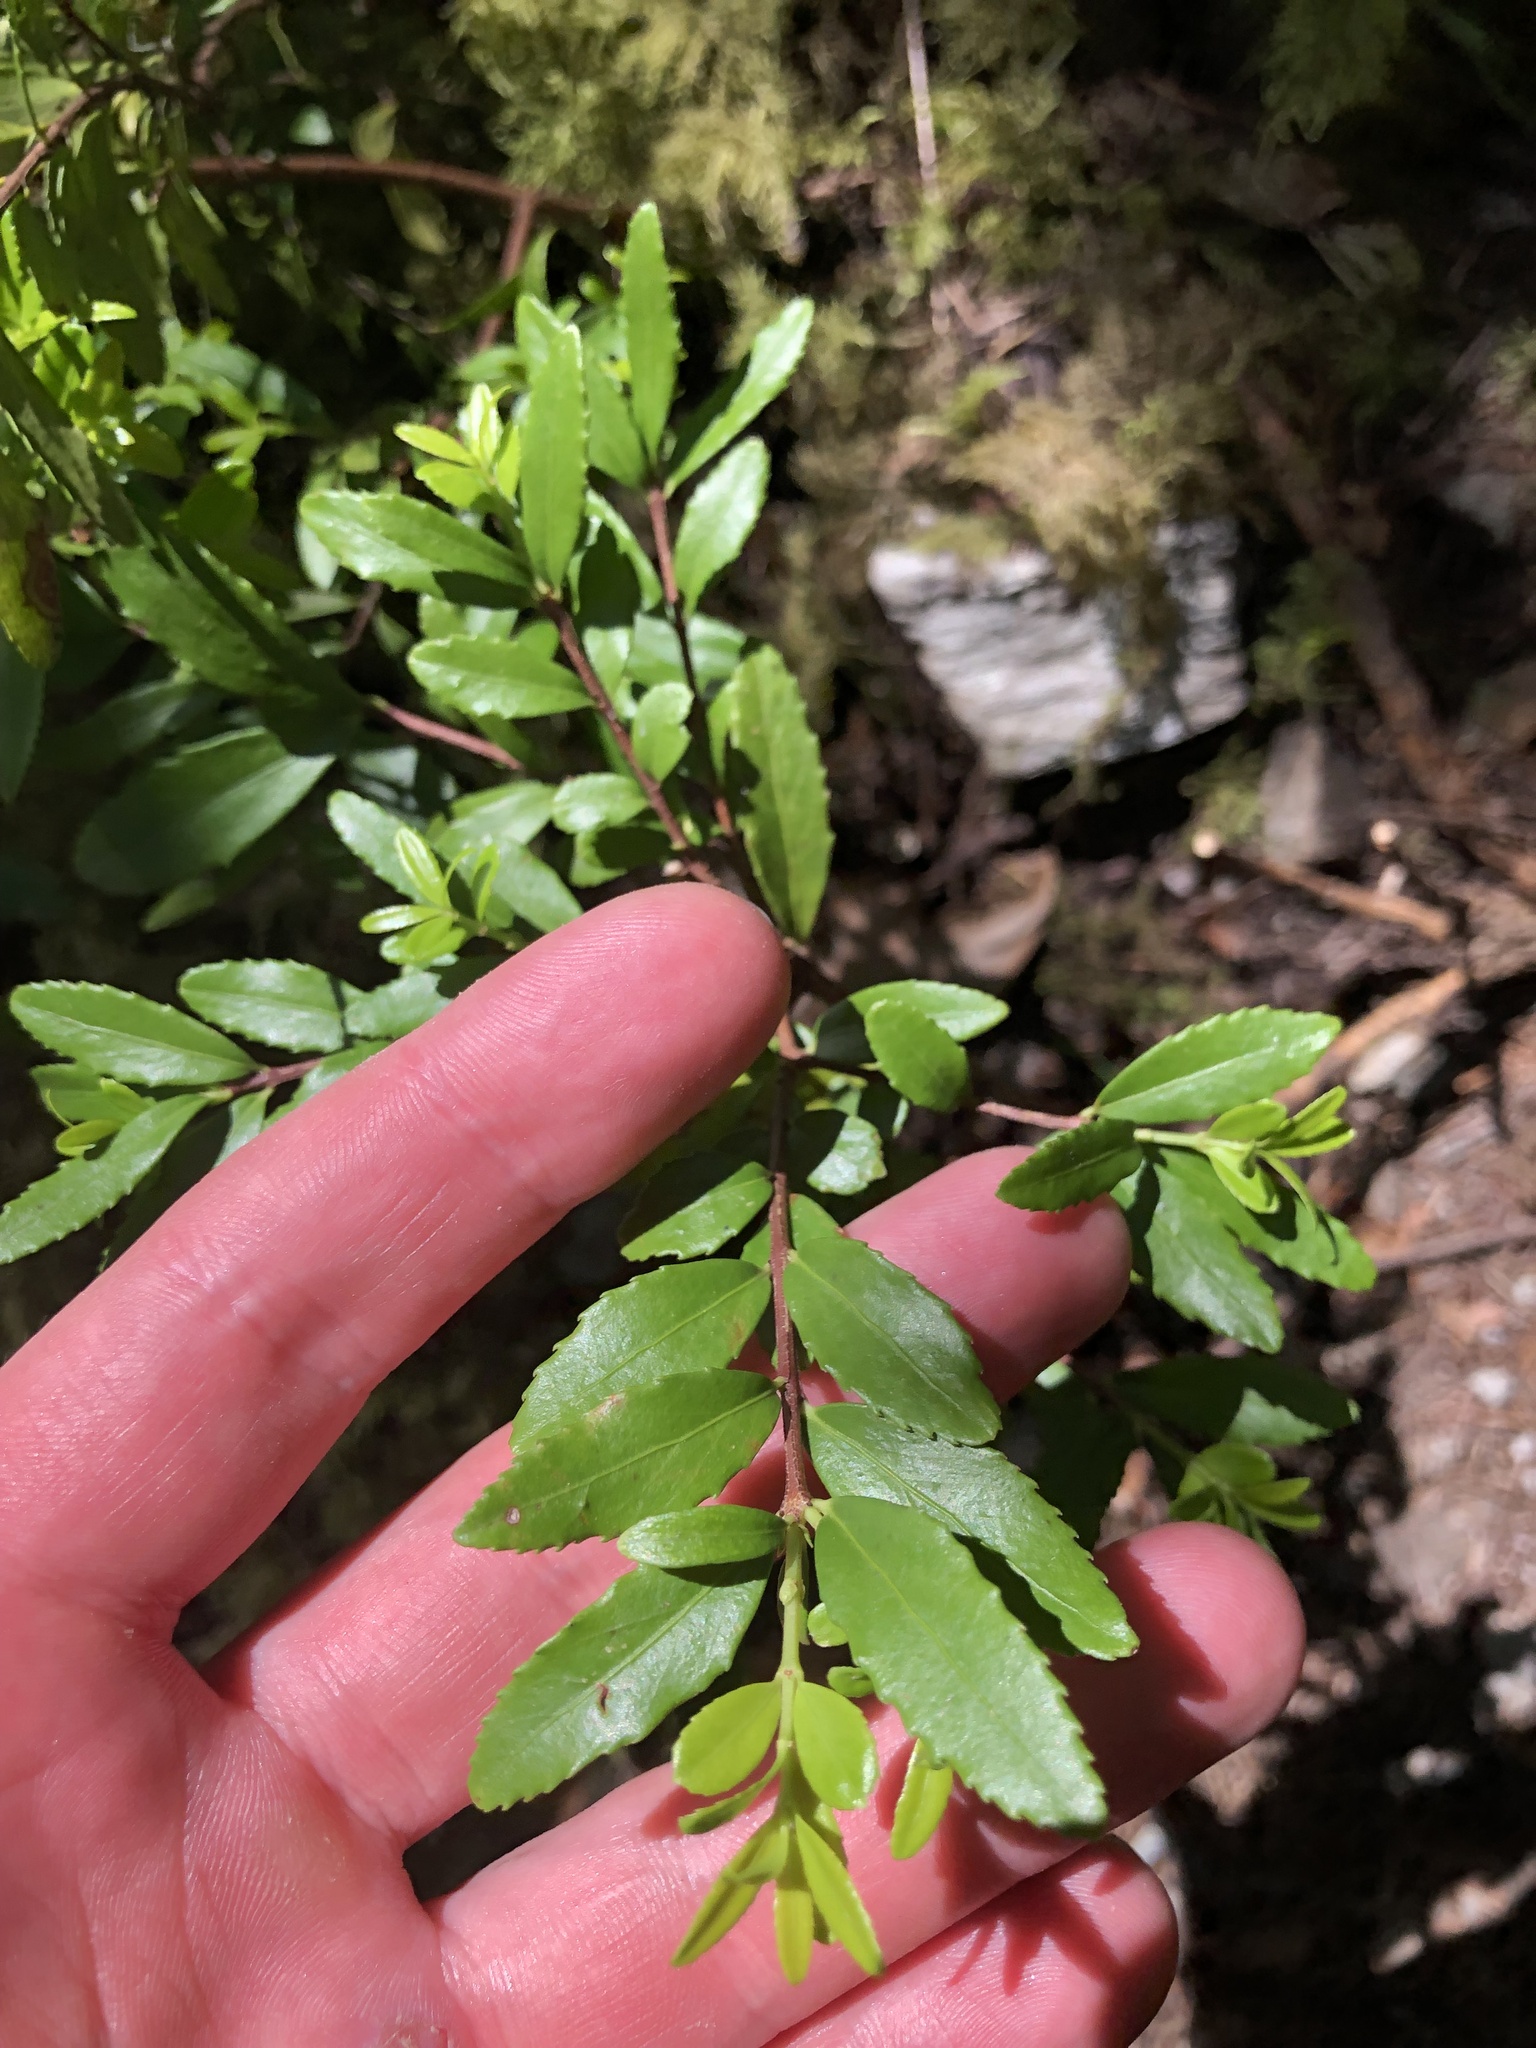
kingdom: Plantae
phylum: Tracheophyta
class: Magnoliopsida
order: Celastrales
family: Celastraceae
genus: Paxistima
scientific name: Paxistima myrsinites
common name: Mountain-lover
